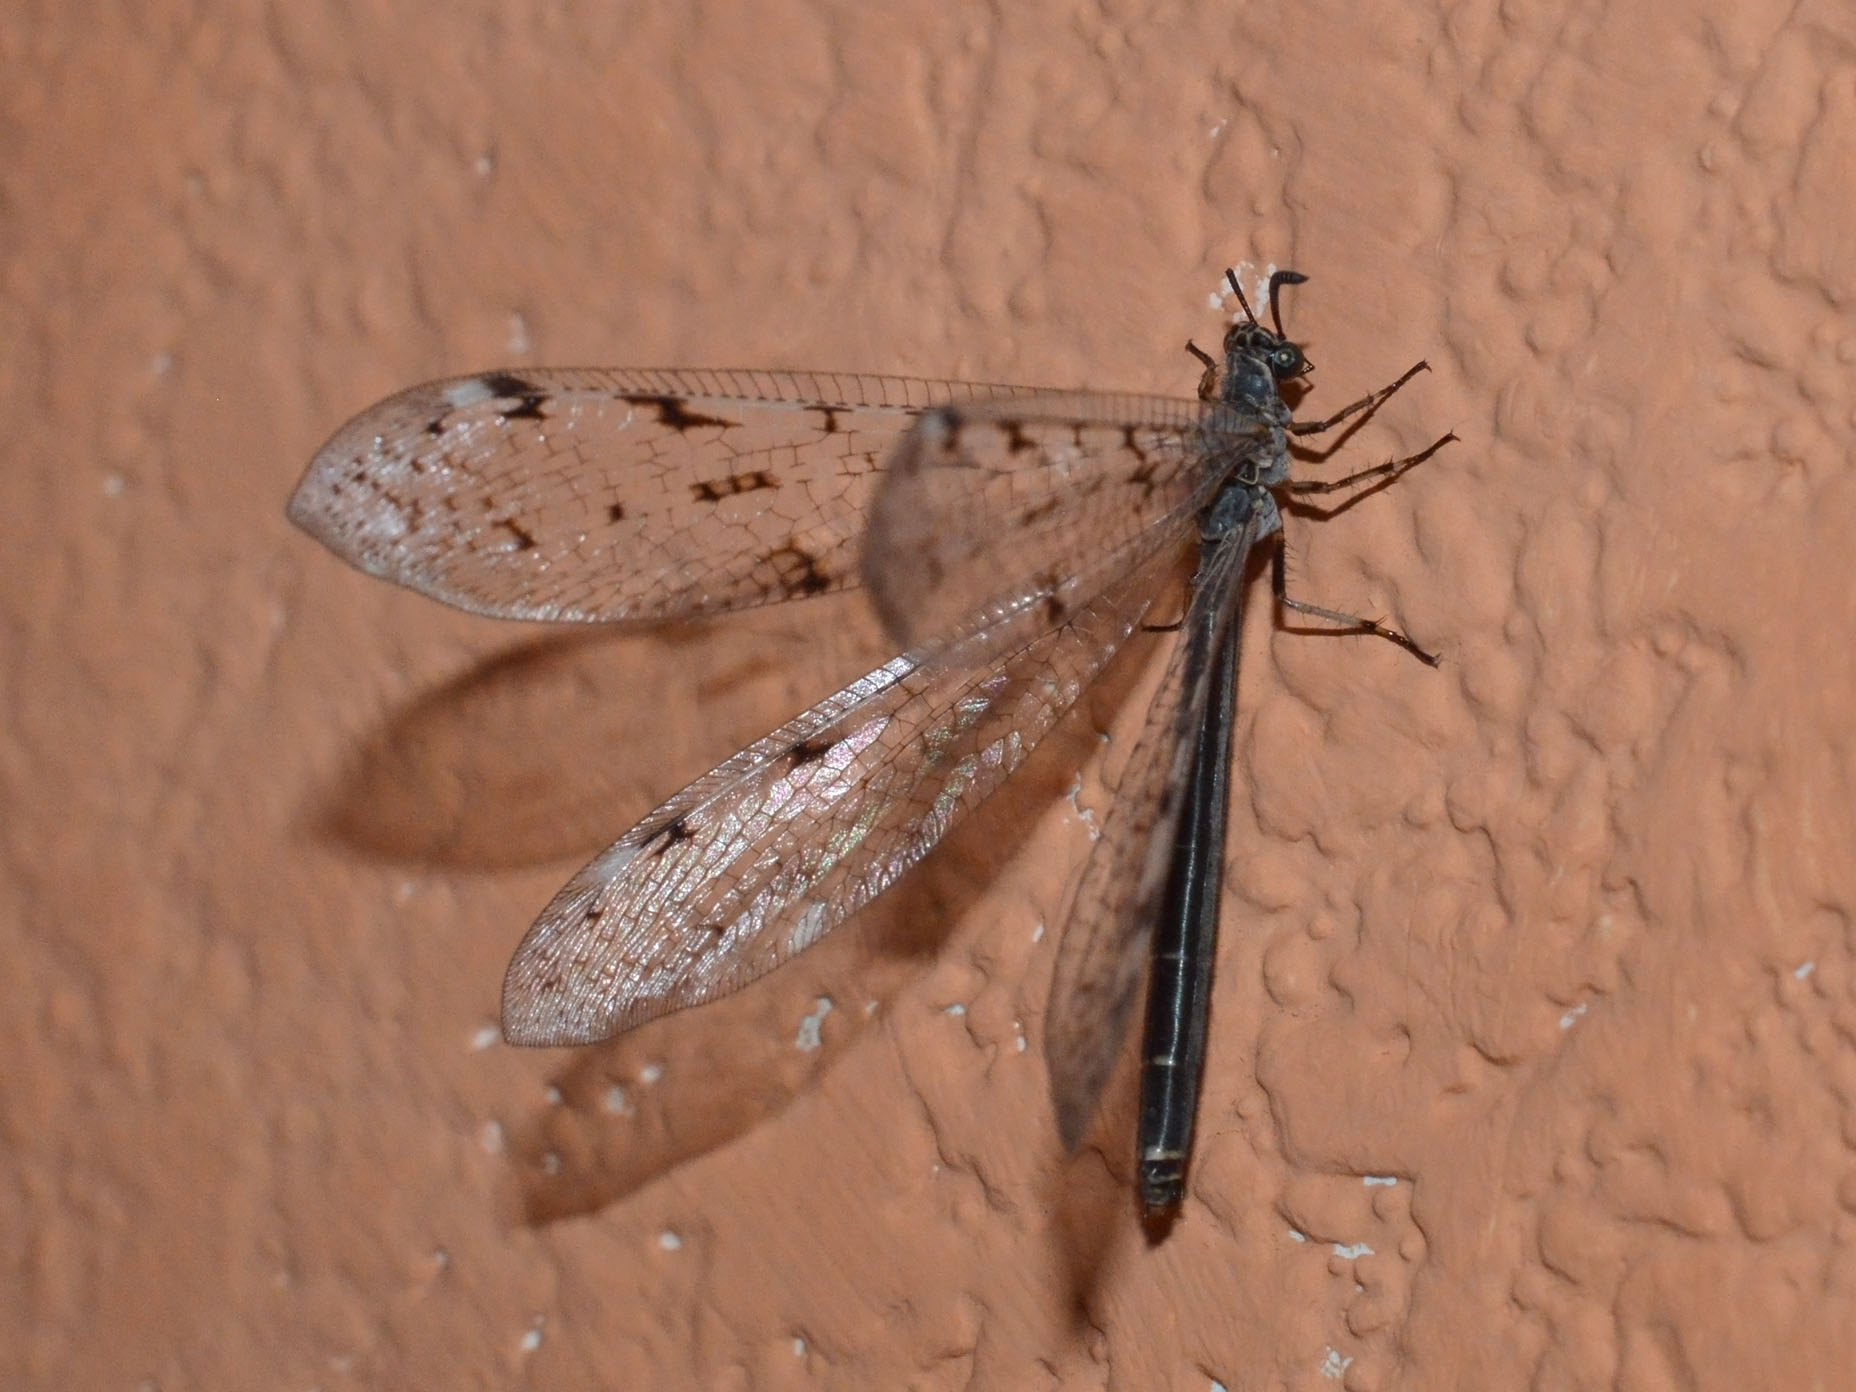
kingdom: Animalia
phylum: Arthropoda
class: Insecta
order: Neuroptera
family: Myrmeleontidae
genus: Euroleon
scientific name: Euroleon nostras
